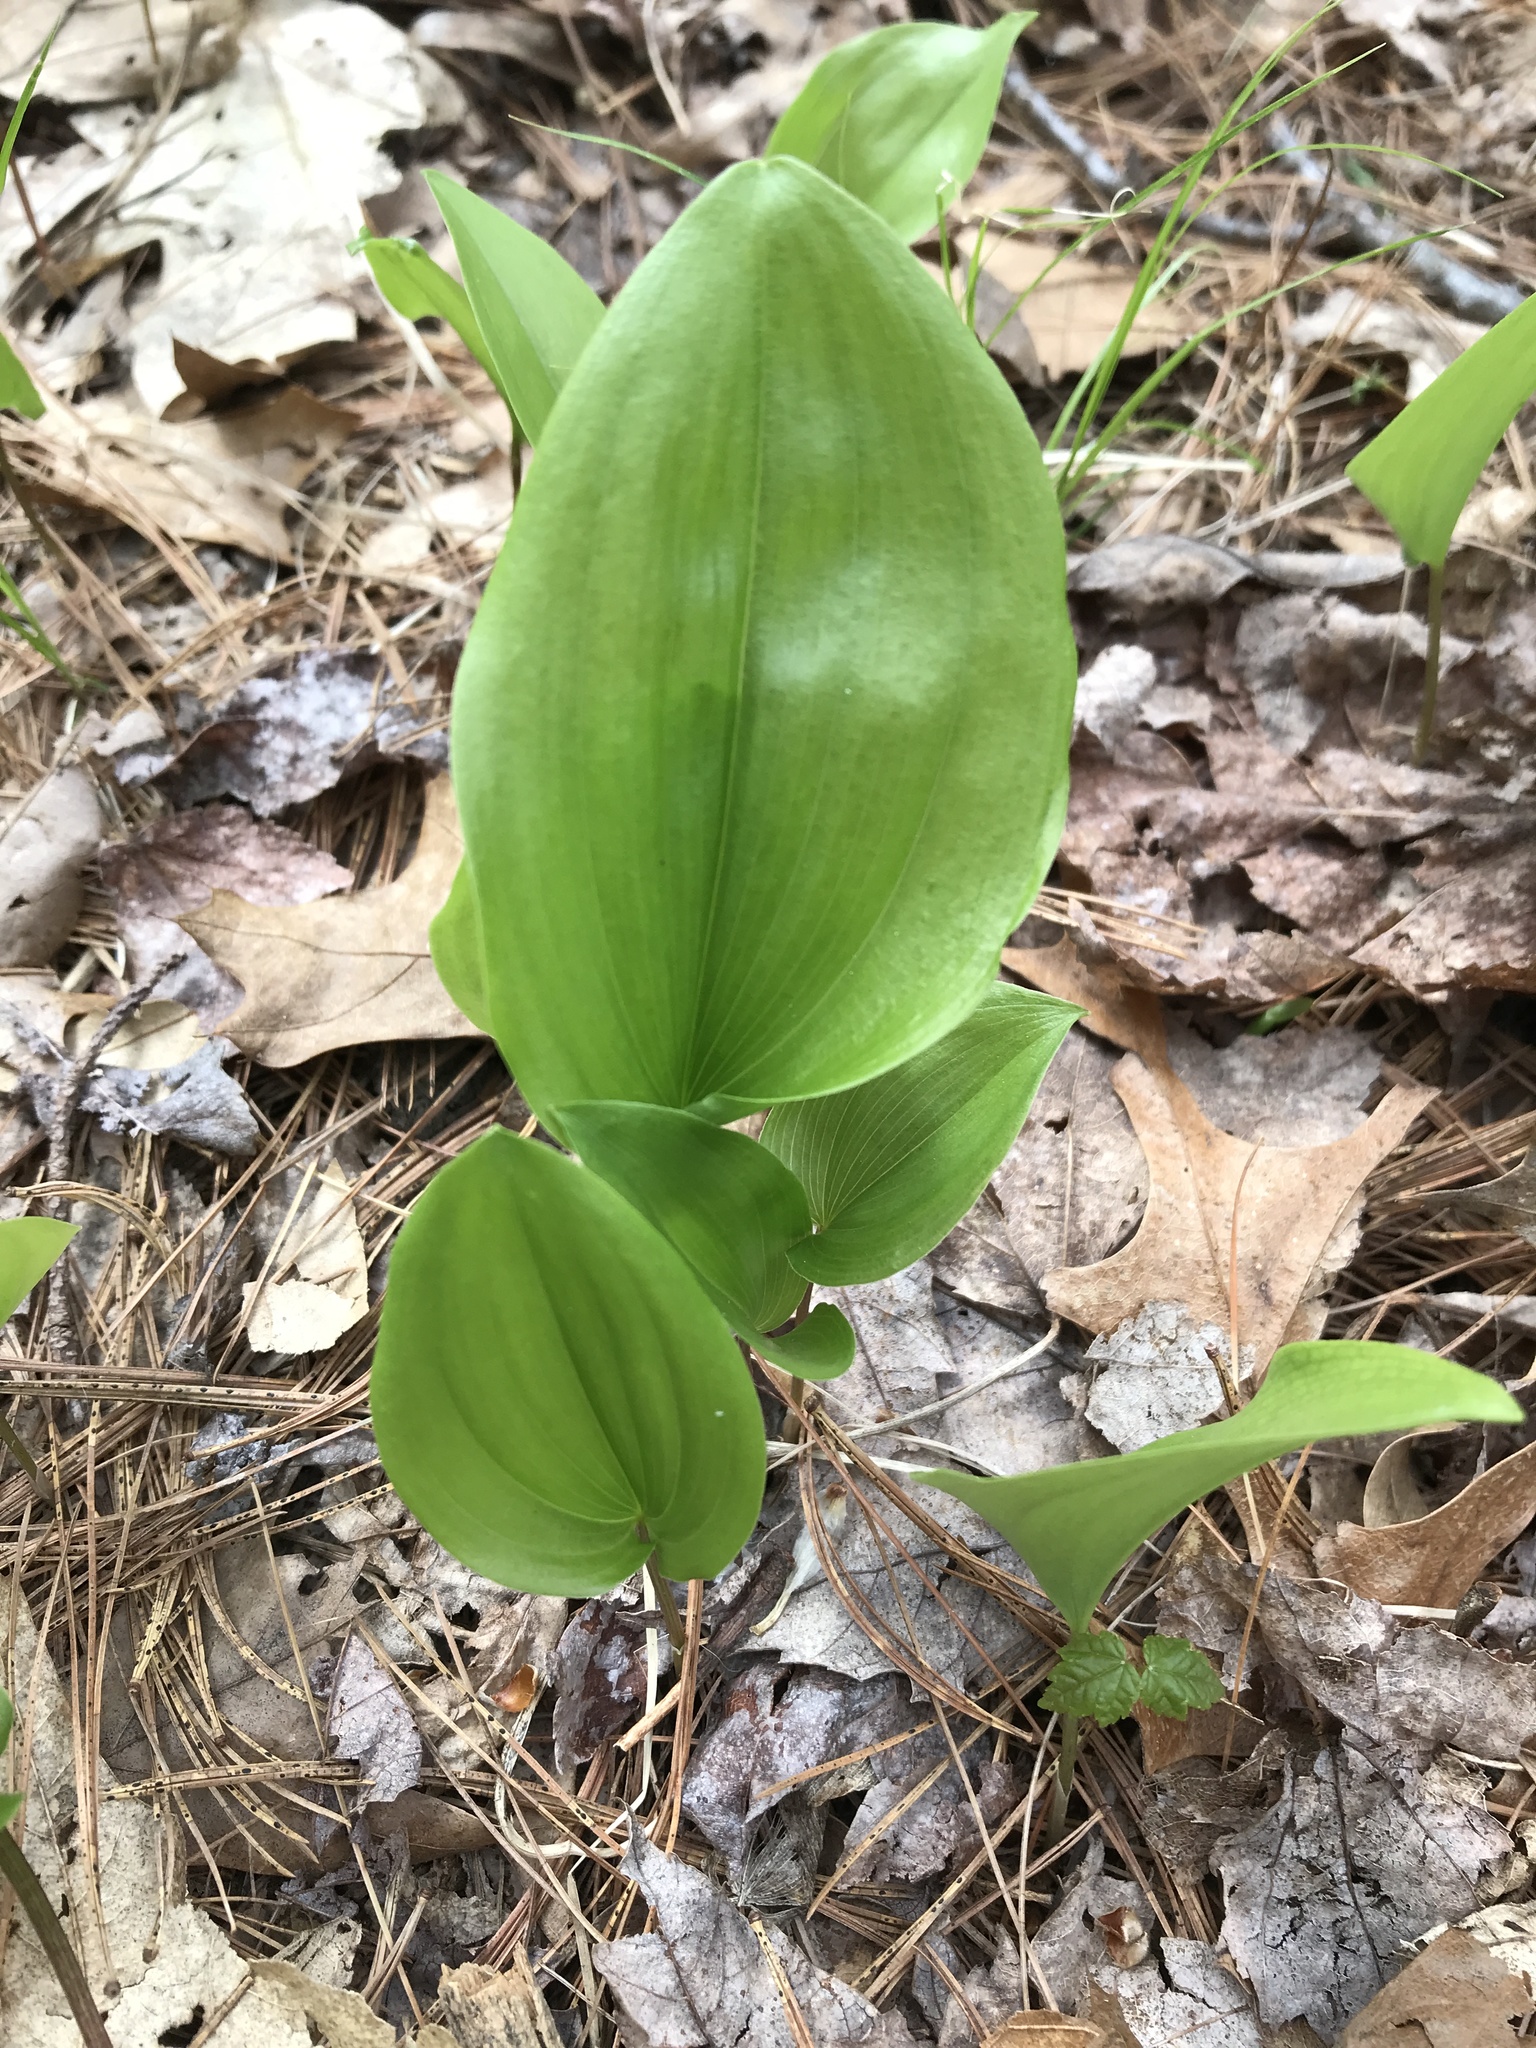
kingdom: Plantae
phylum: Tracheophyta
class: Liliopsida
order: Asparagales
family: Asparagaceae
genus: Maianthemum
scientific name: Maianthemum canadense
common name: False lily-of-the-valley
